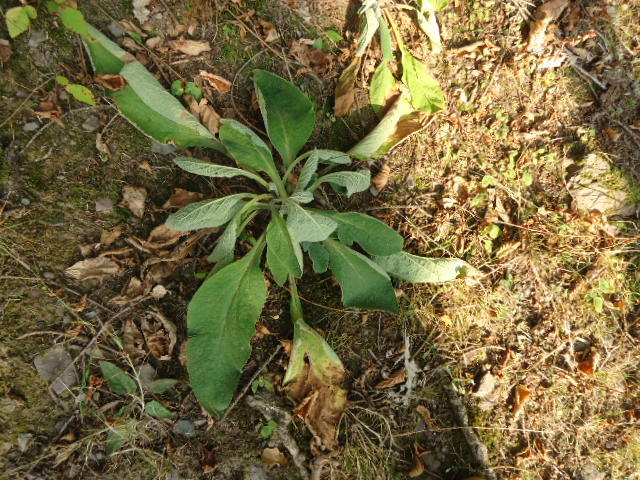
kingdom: Plantae
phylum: Tracheophyta
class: Magnoliopsida
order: Lamiales
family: Plantaginaceae
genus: Digitalis
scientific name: Digitalis purpurea
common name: Foxglove
